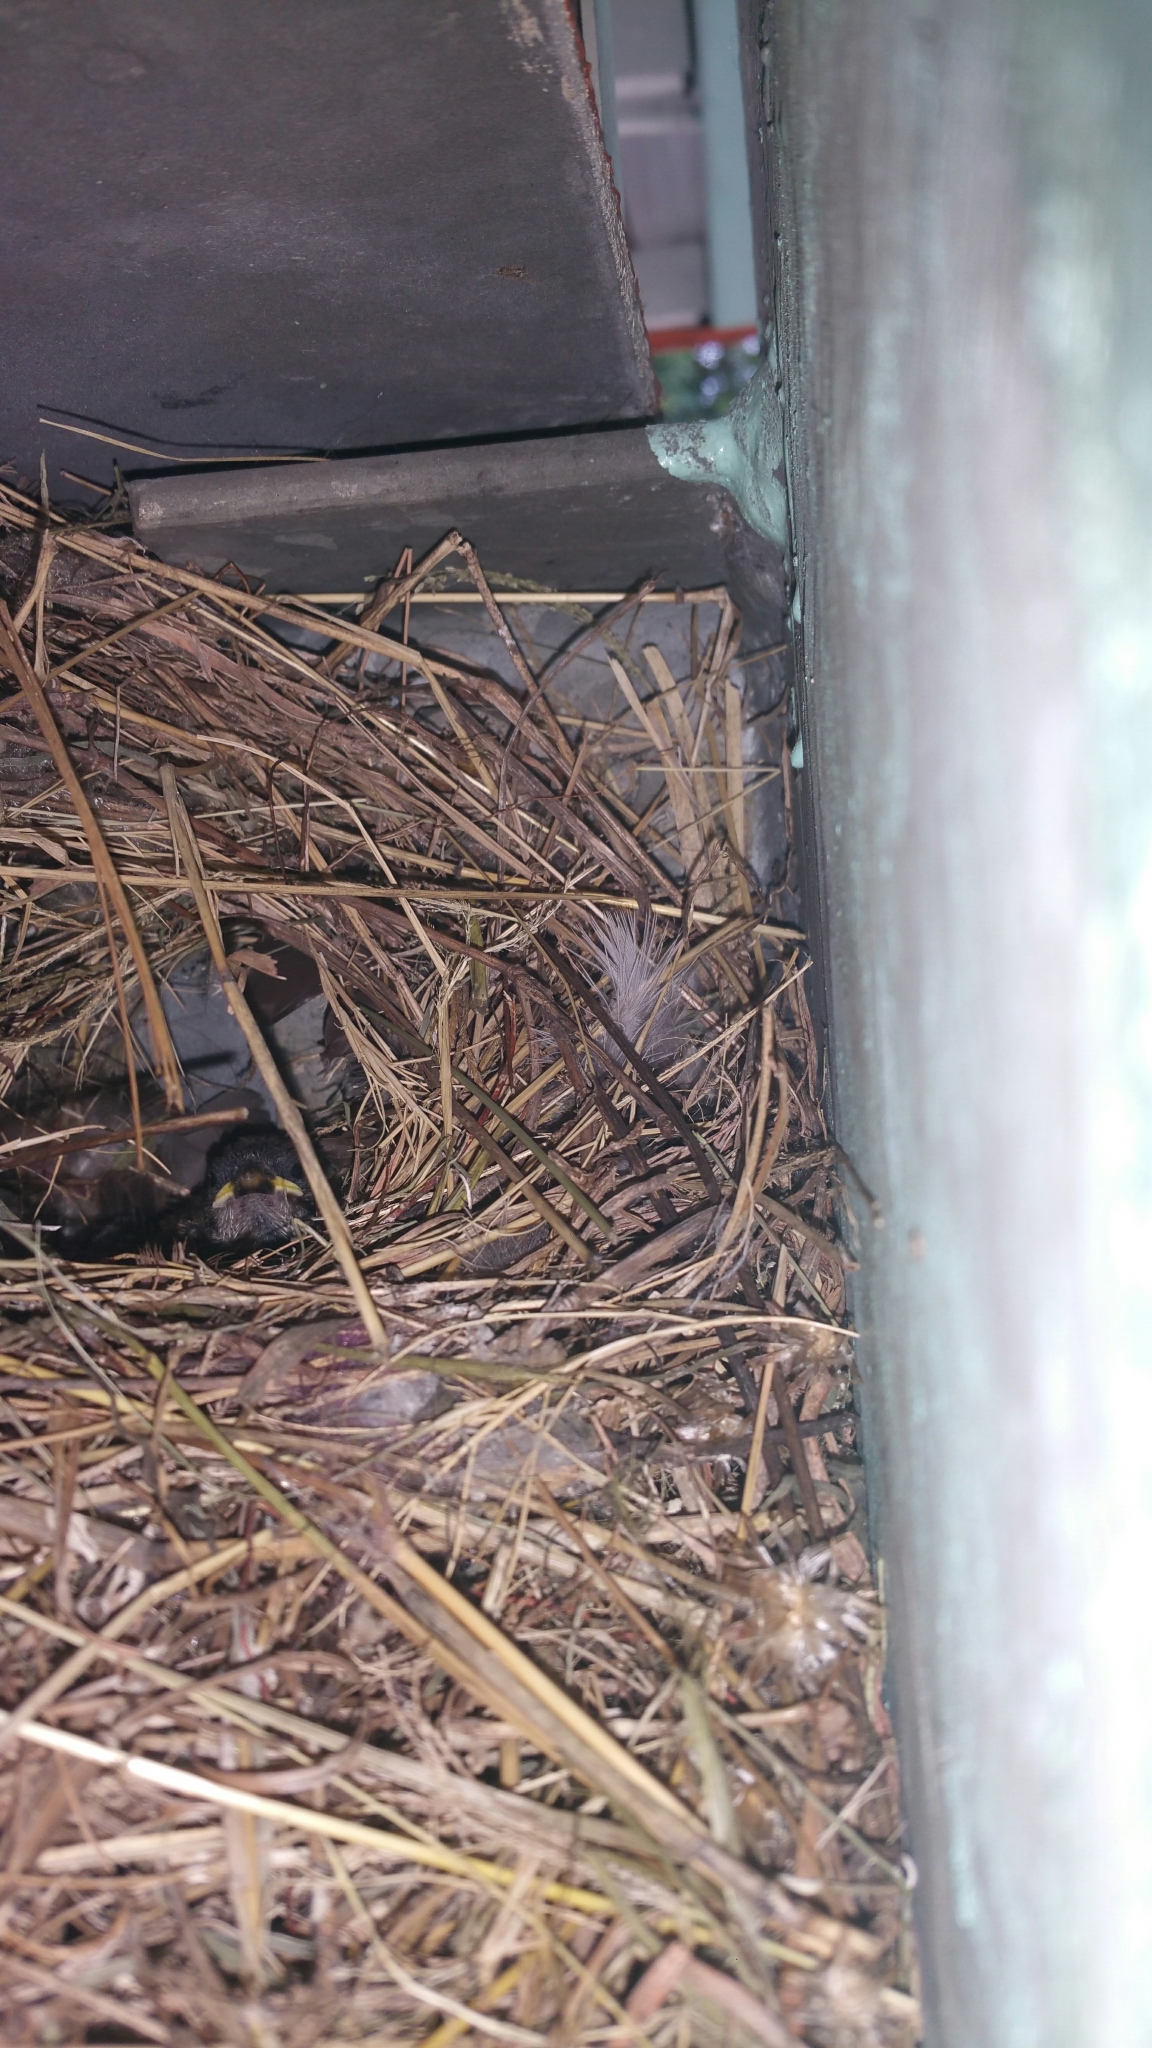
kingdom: Animalia
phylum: Chordata
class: Aves
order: Passeriformes
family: Passeridae
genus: Passer
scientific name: Passer montanus
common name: Eurasian tree sparrow
